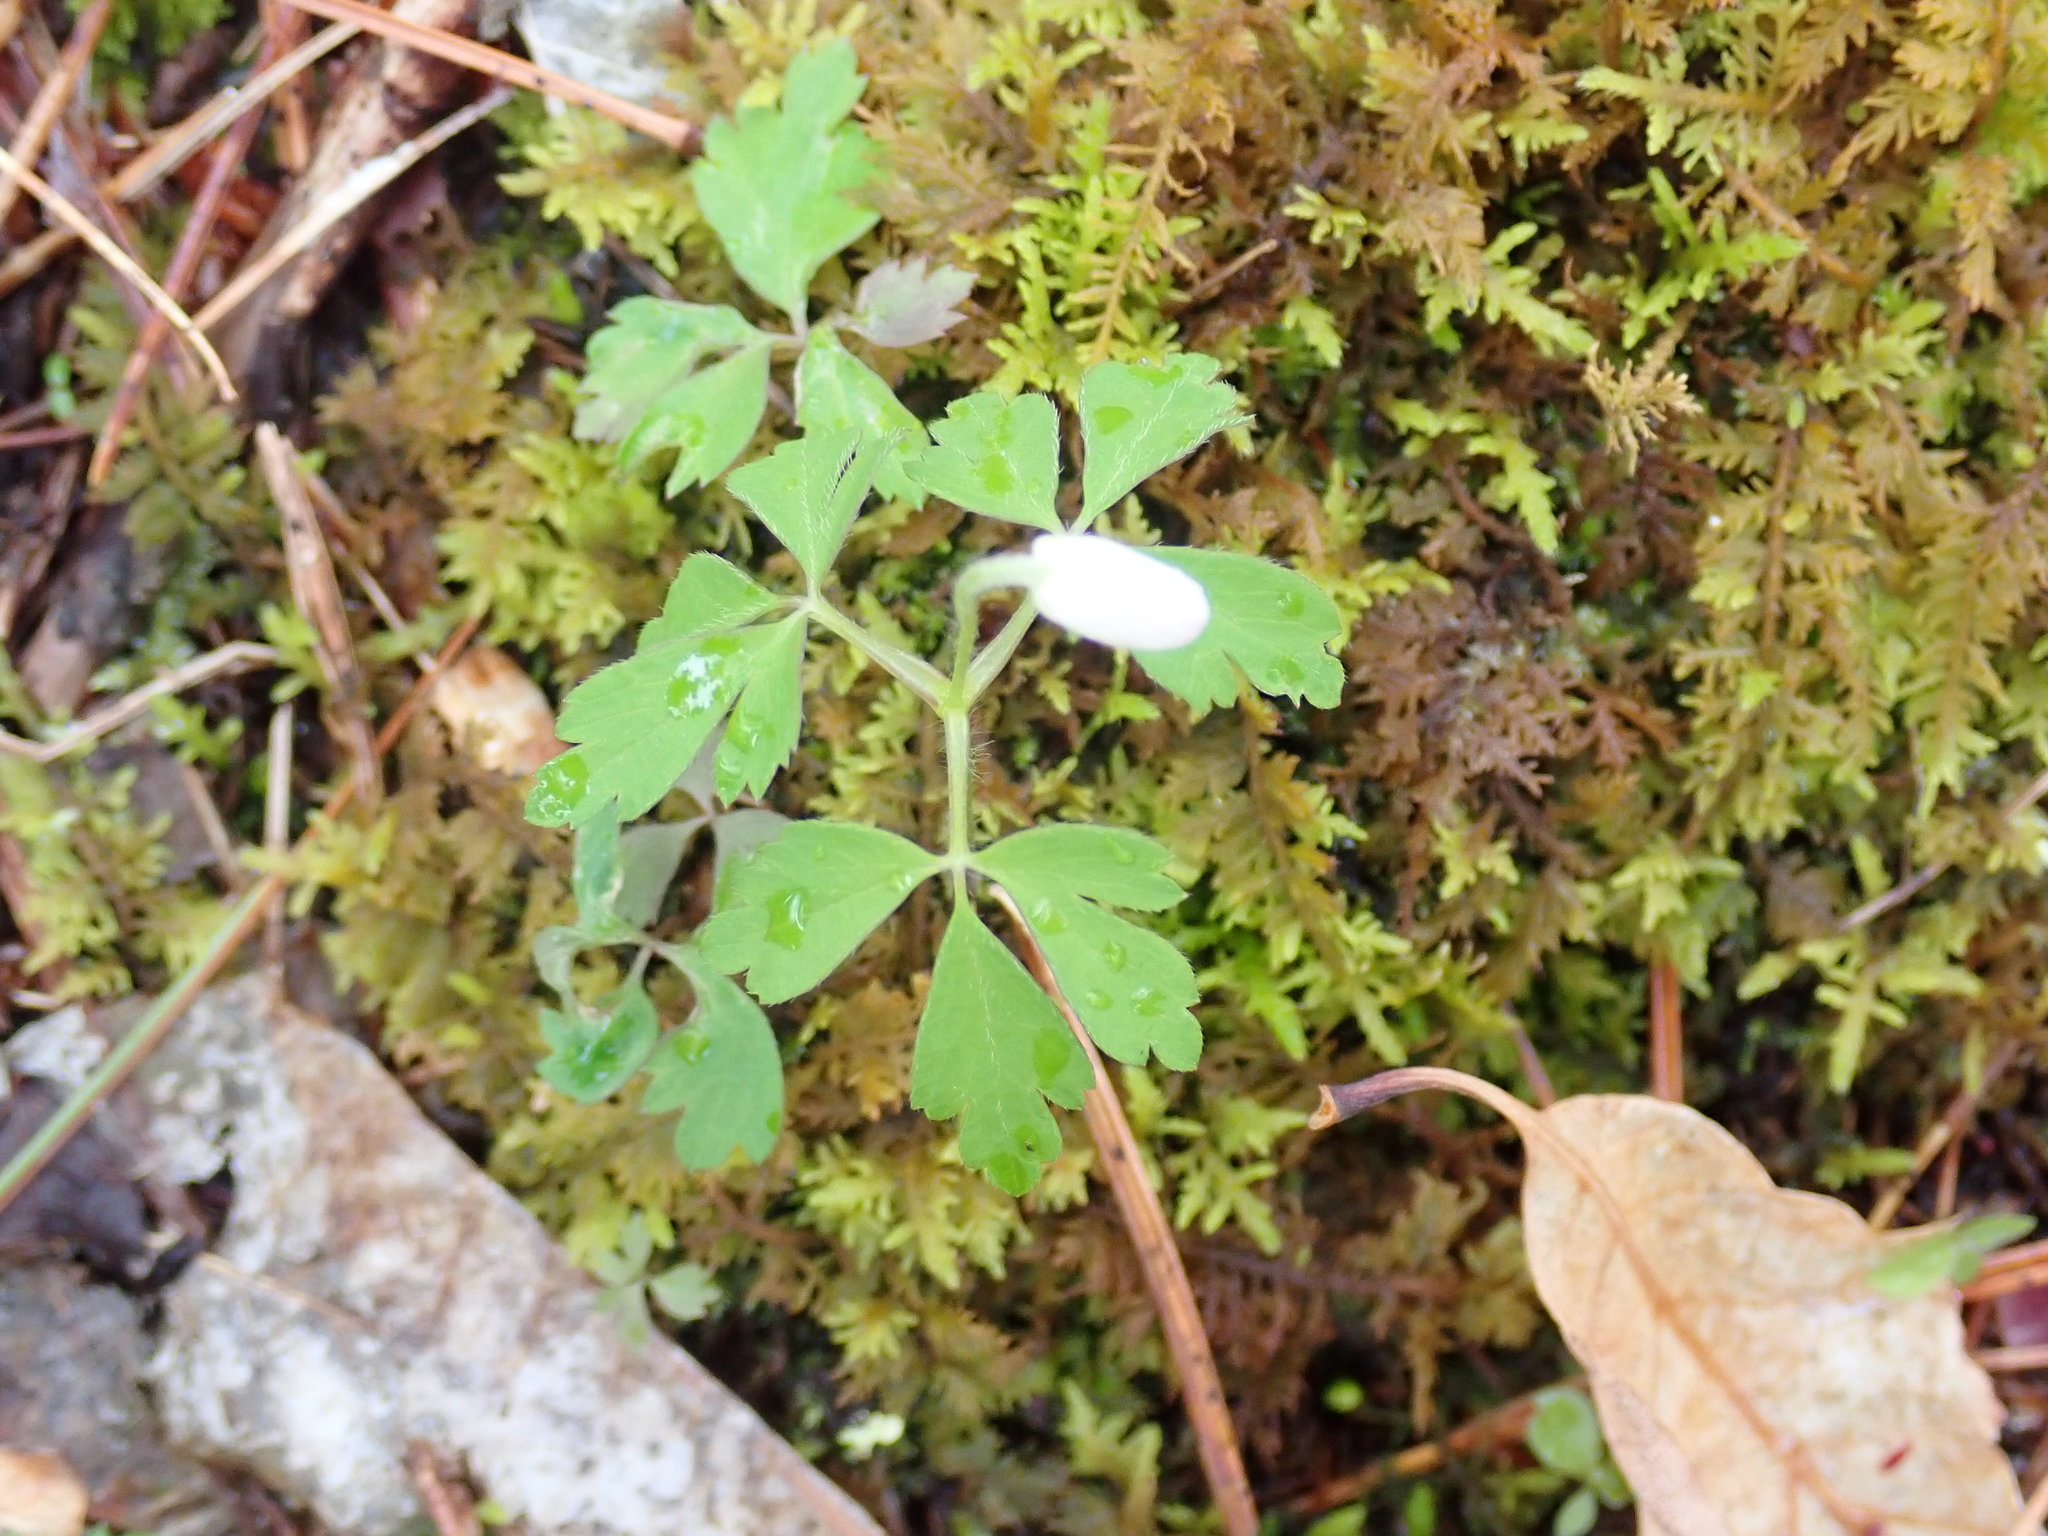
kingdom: Plantae
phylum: Tracheophyta
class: Magnoliopsida
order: Ranunculales
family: Ranunculaceae
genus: Anemone
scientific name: Anemone quinquefolia
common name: Wood anemone
